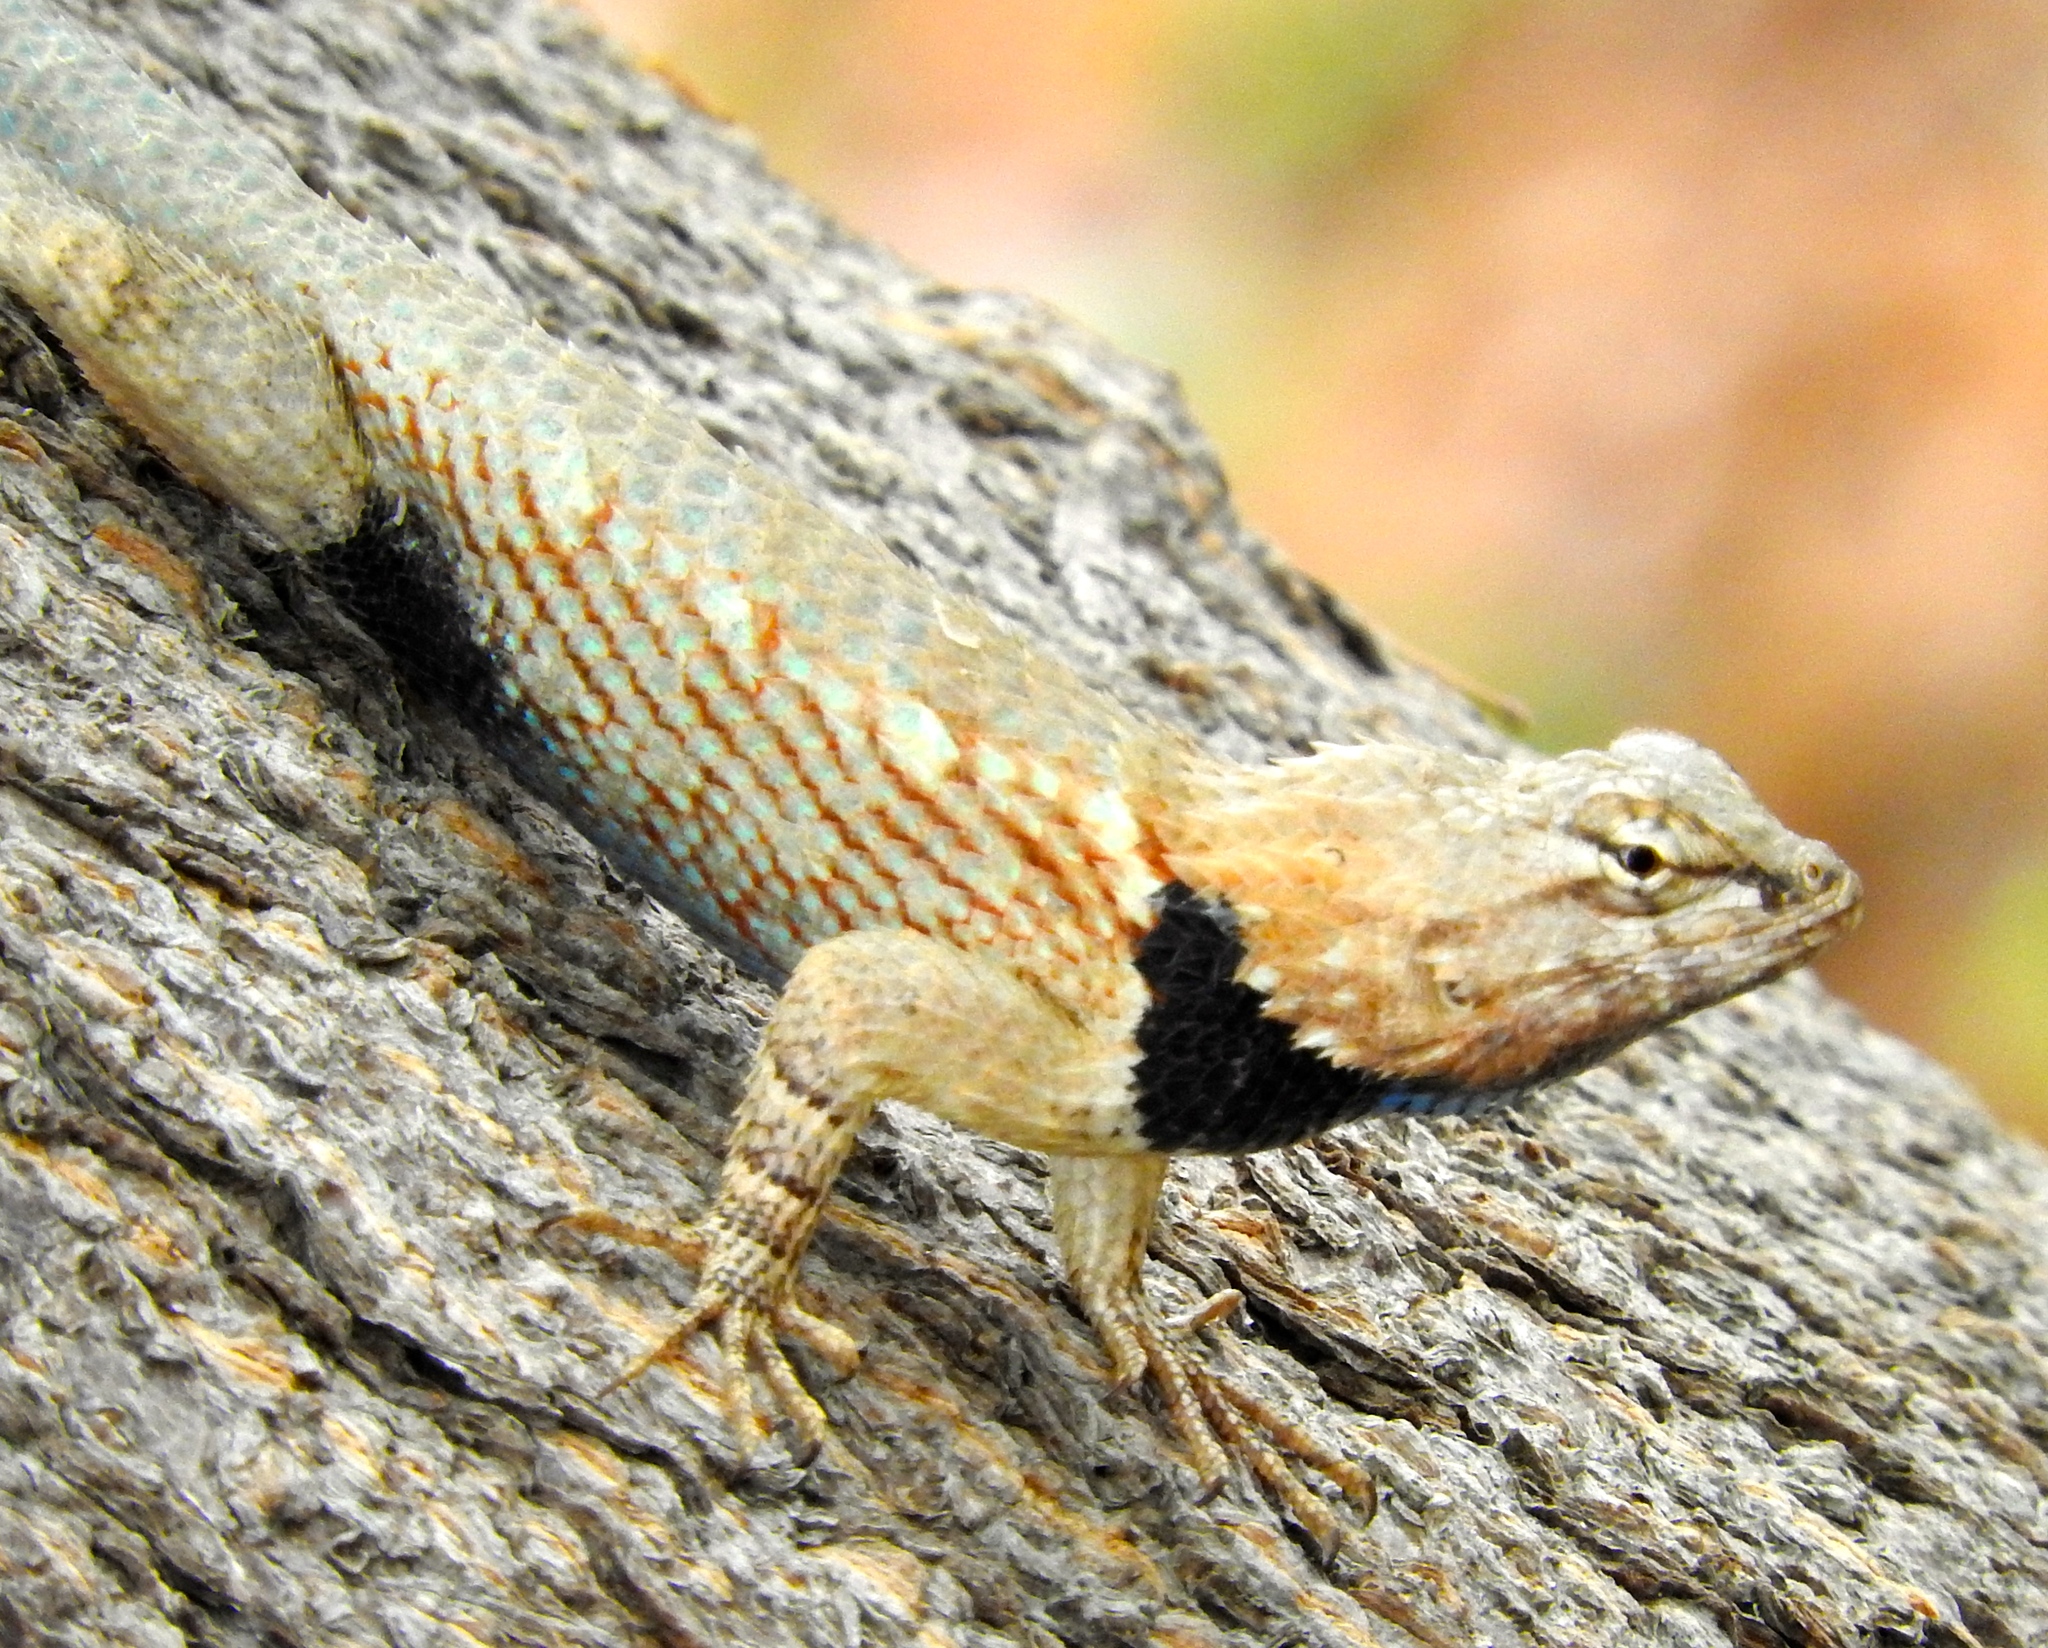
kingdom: Animalia
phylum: Chordata
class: Squamata
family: Phrynosomatidae
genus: Sceloporus
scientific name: Sceloporus clarkii
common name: Clark's spiny lizard
